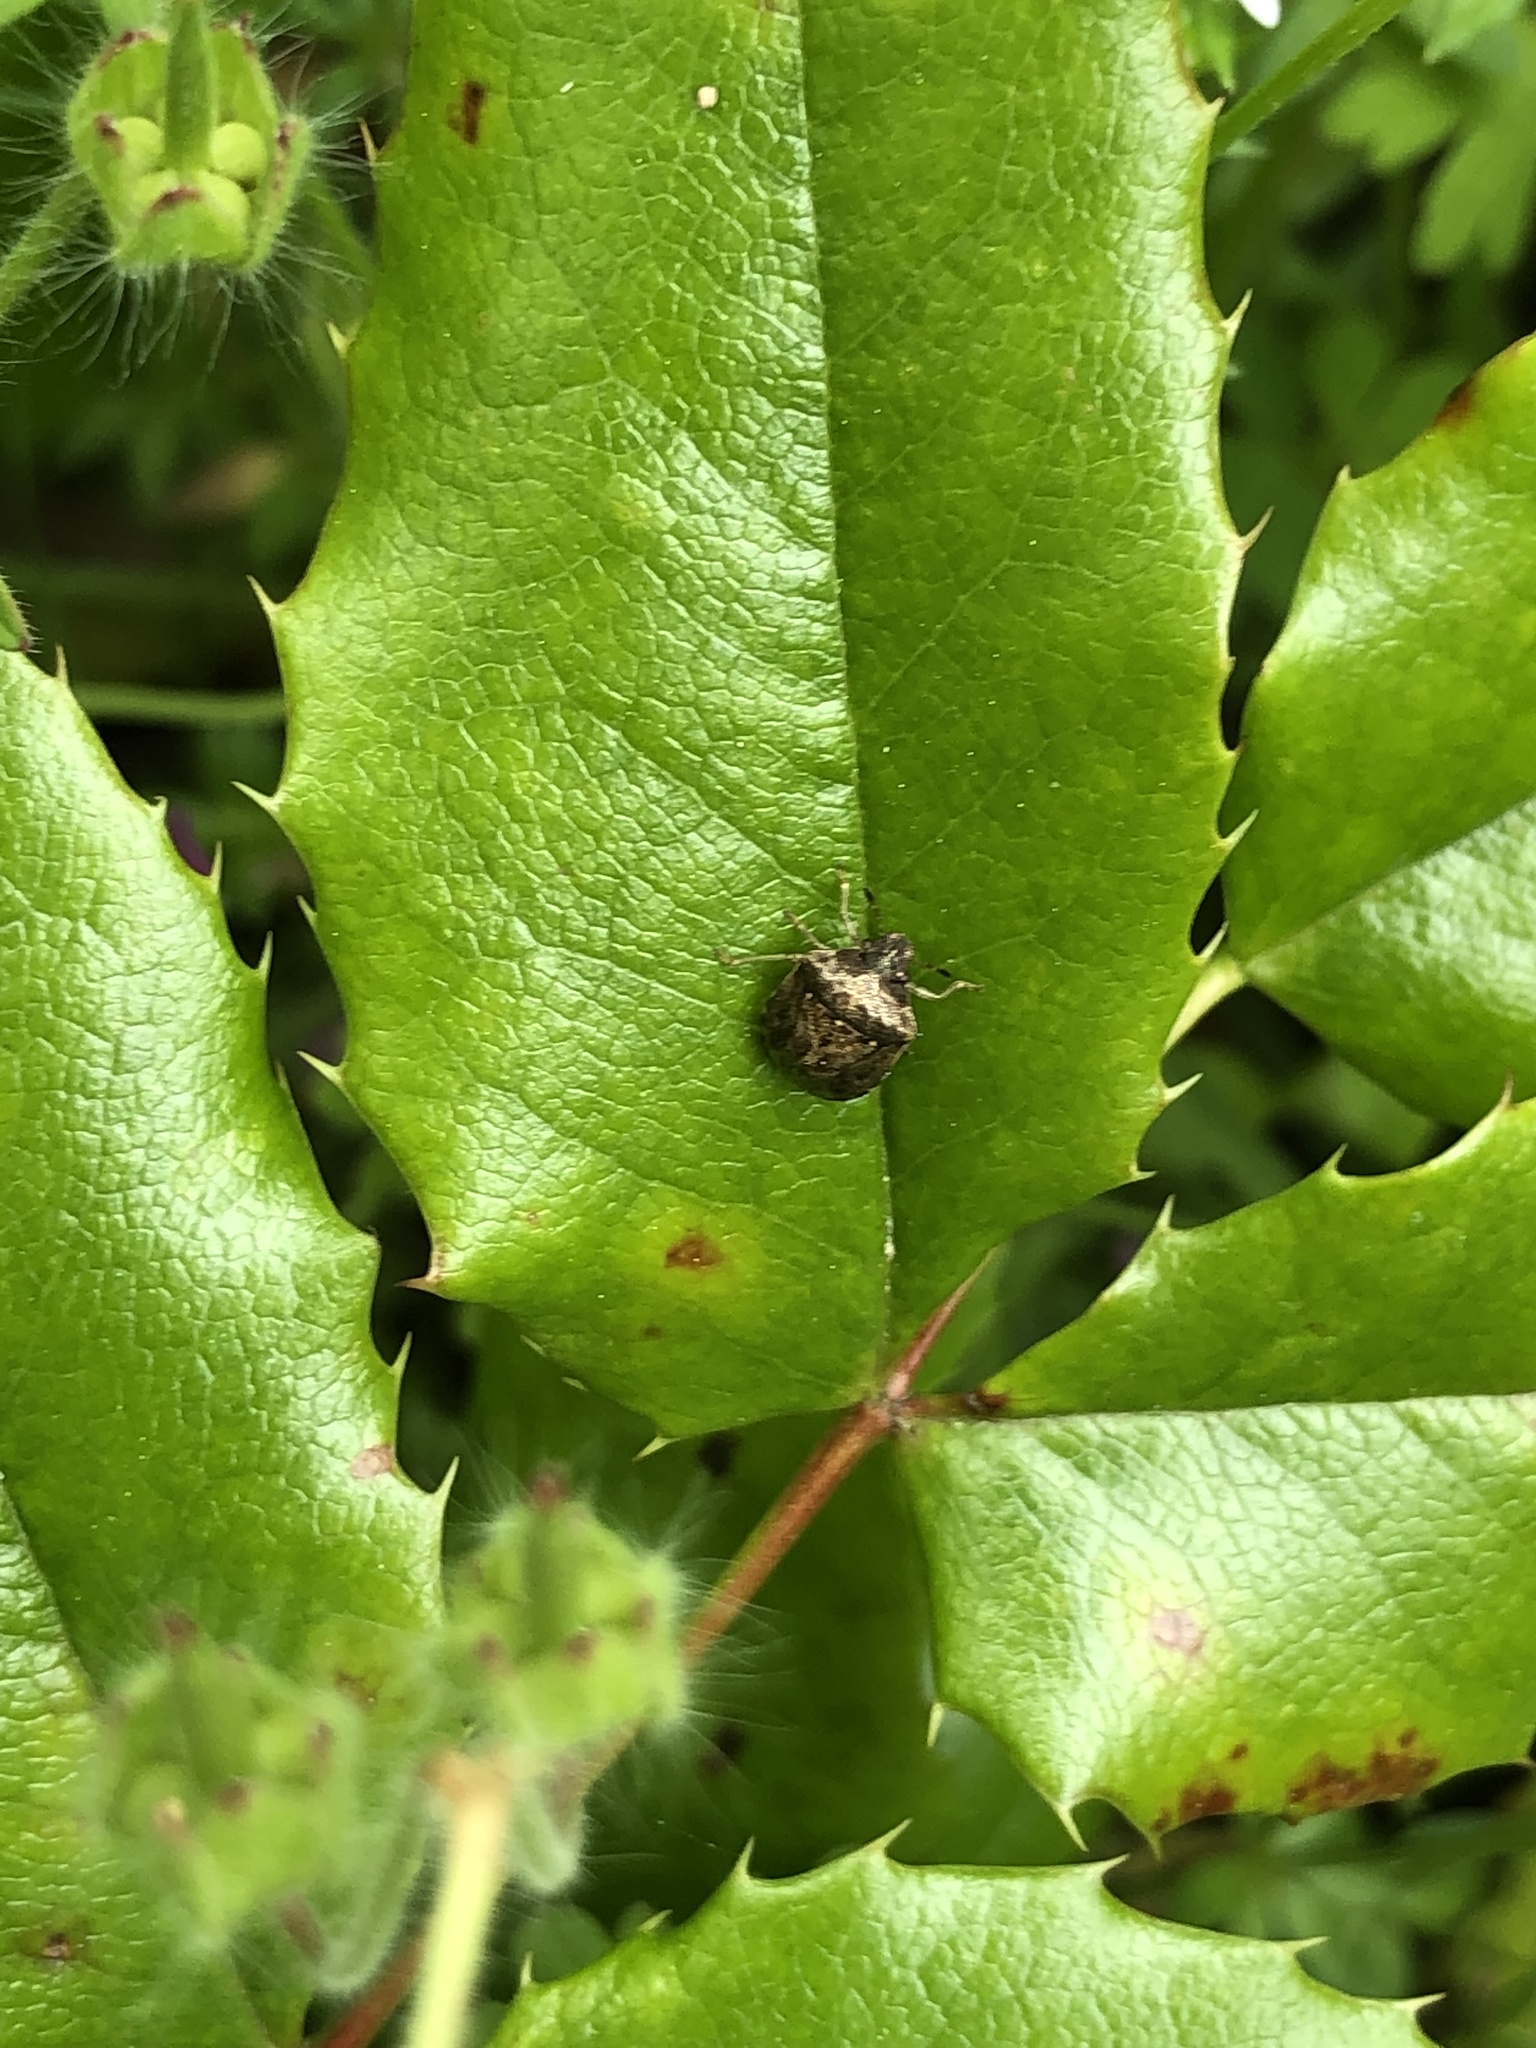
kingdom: Animalia
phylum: Arthropoda
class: Insecta
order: Hemiptera
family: Pentatomidae
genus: Cosmopepla
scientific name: Cosmopepla intergressus
